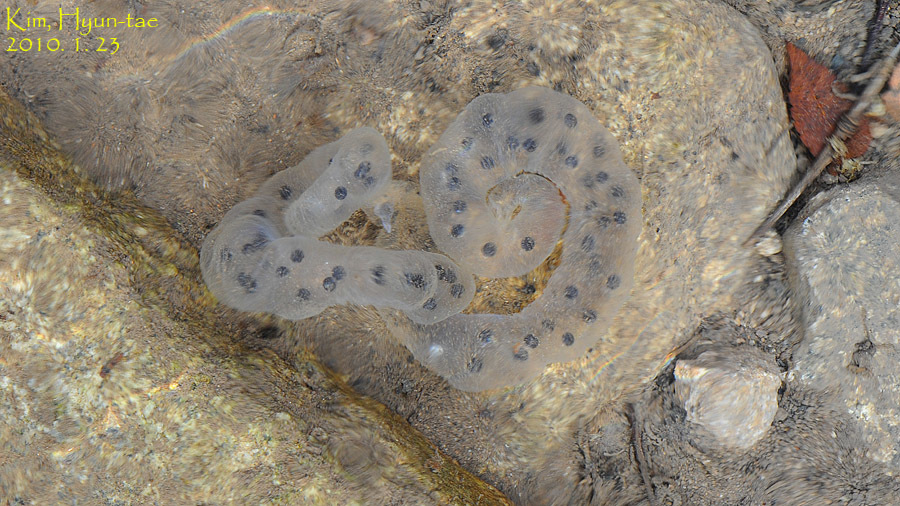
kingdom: Animalia
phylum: Chordata
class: Amphibia
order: Caudata
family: Hynobiidae
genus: Hynobius
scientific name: Hynobius leechii
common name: Gensan salamander
